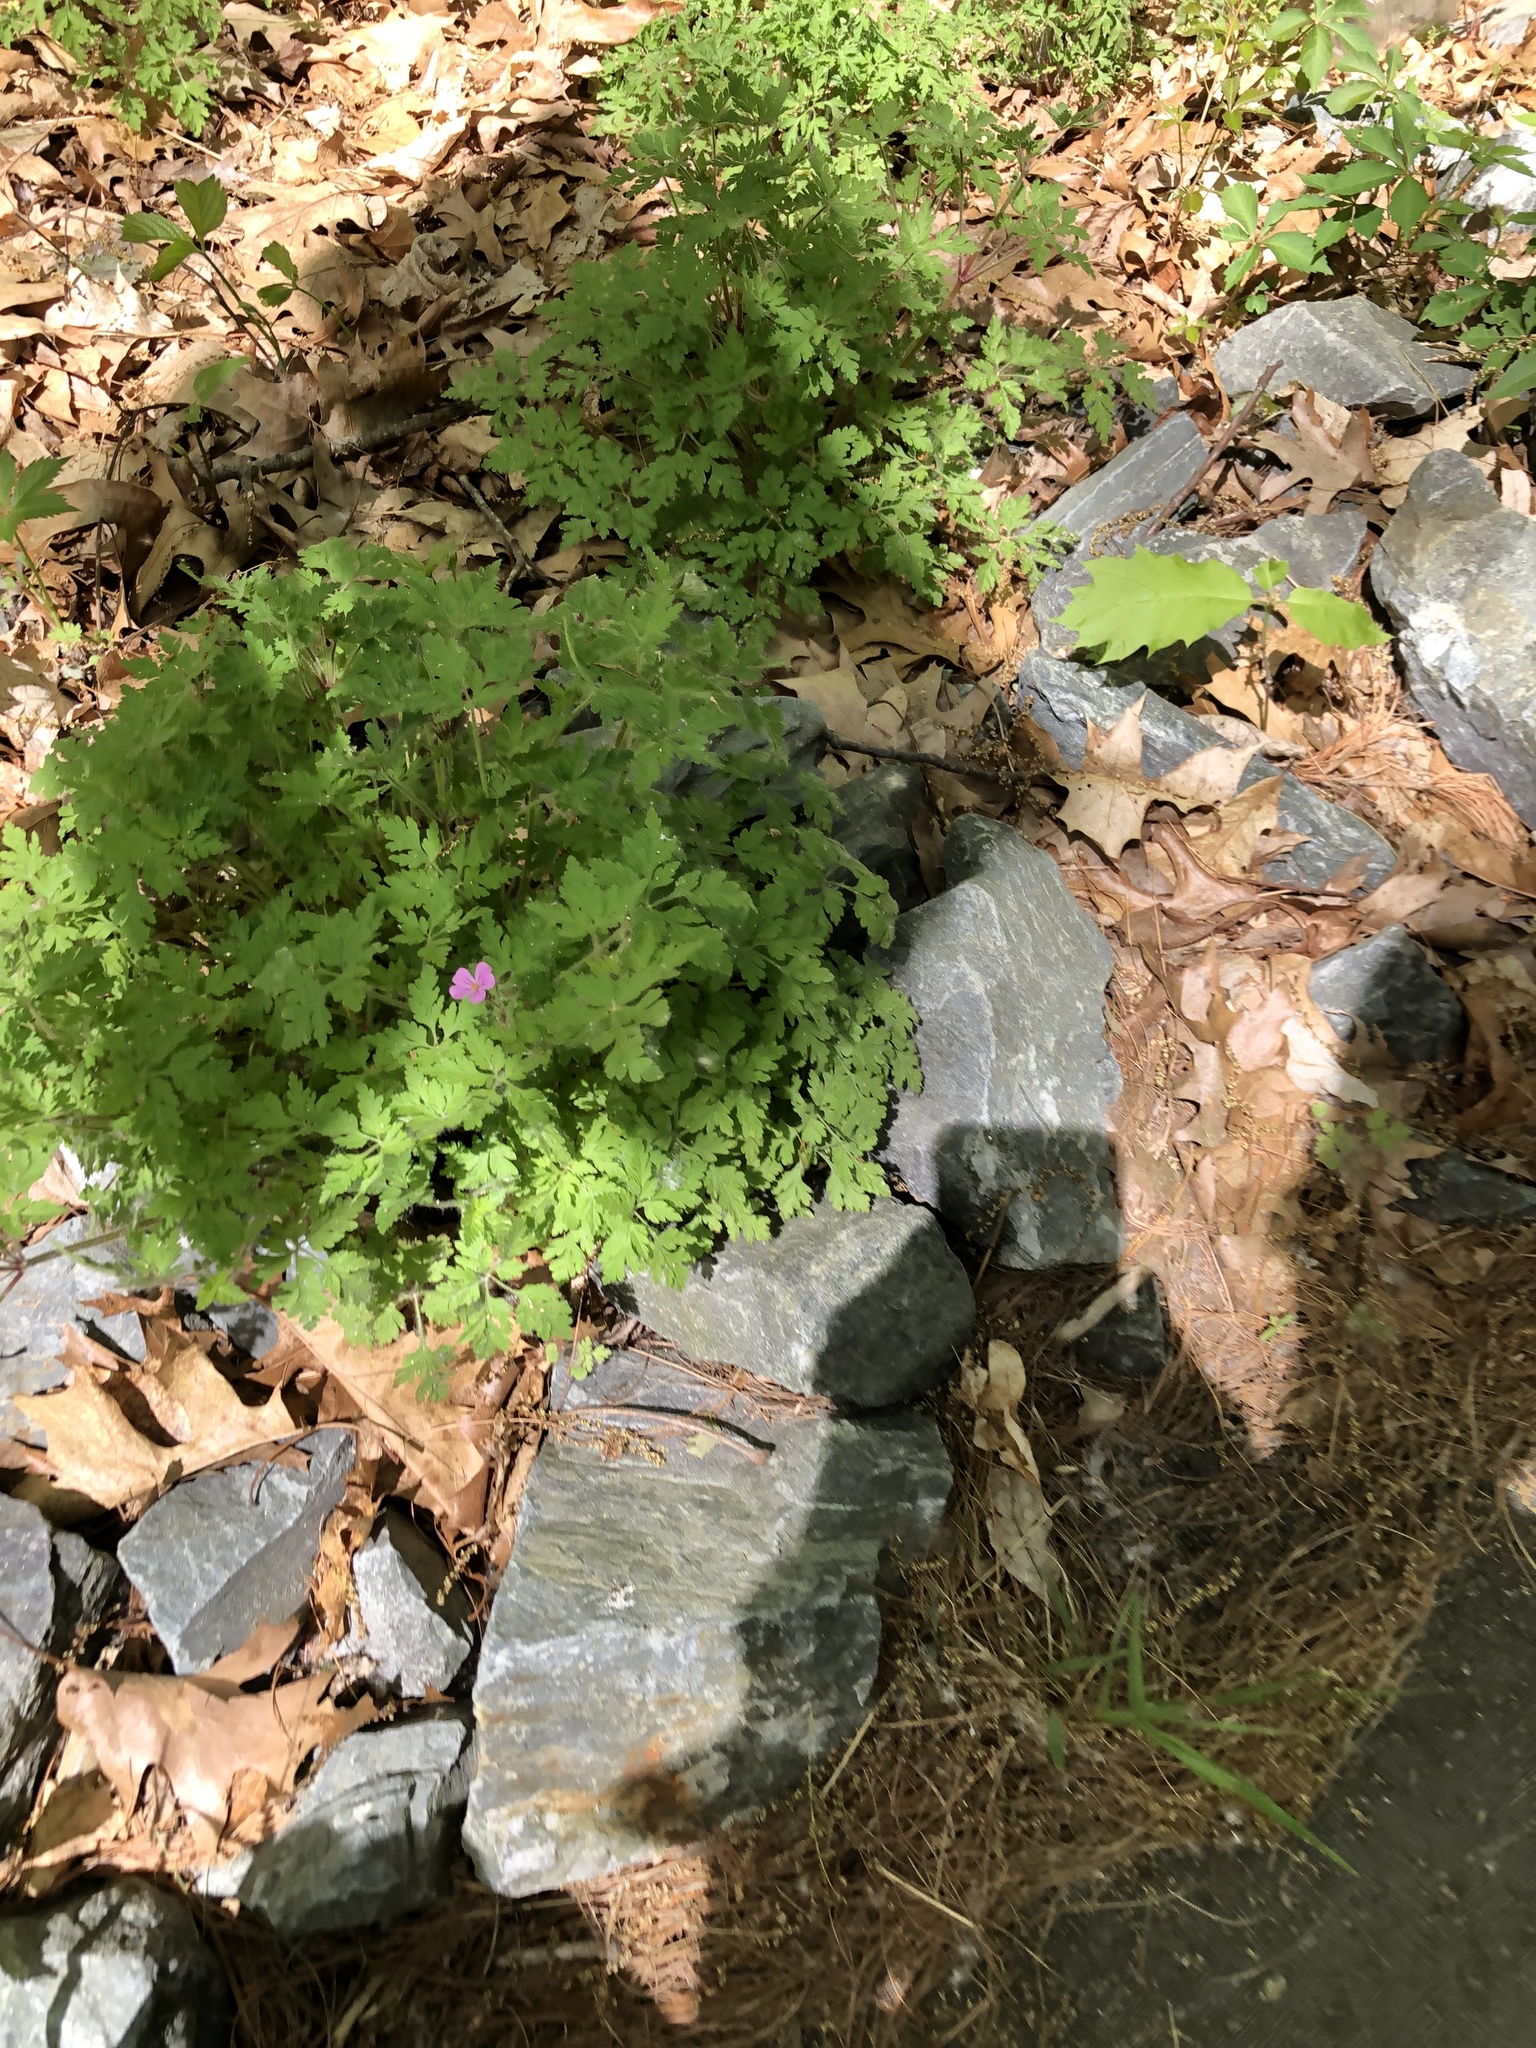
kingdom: Plantae
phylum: Tracheophyta
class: Magnoliopsida
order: Geraniales
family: Geraniaceae
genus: Geranium
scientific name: Geranium robertianum
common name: Herb-robert
